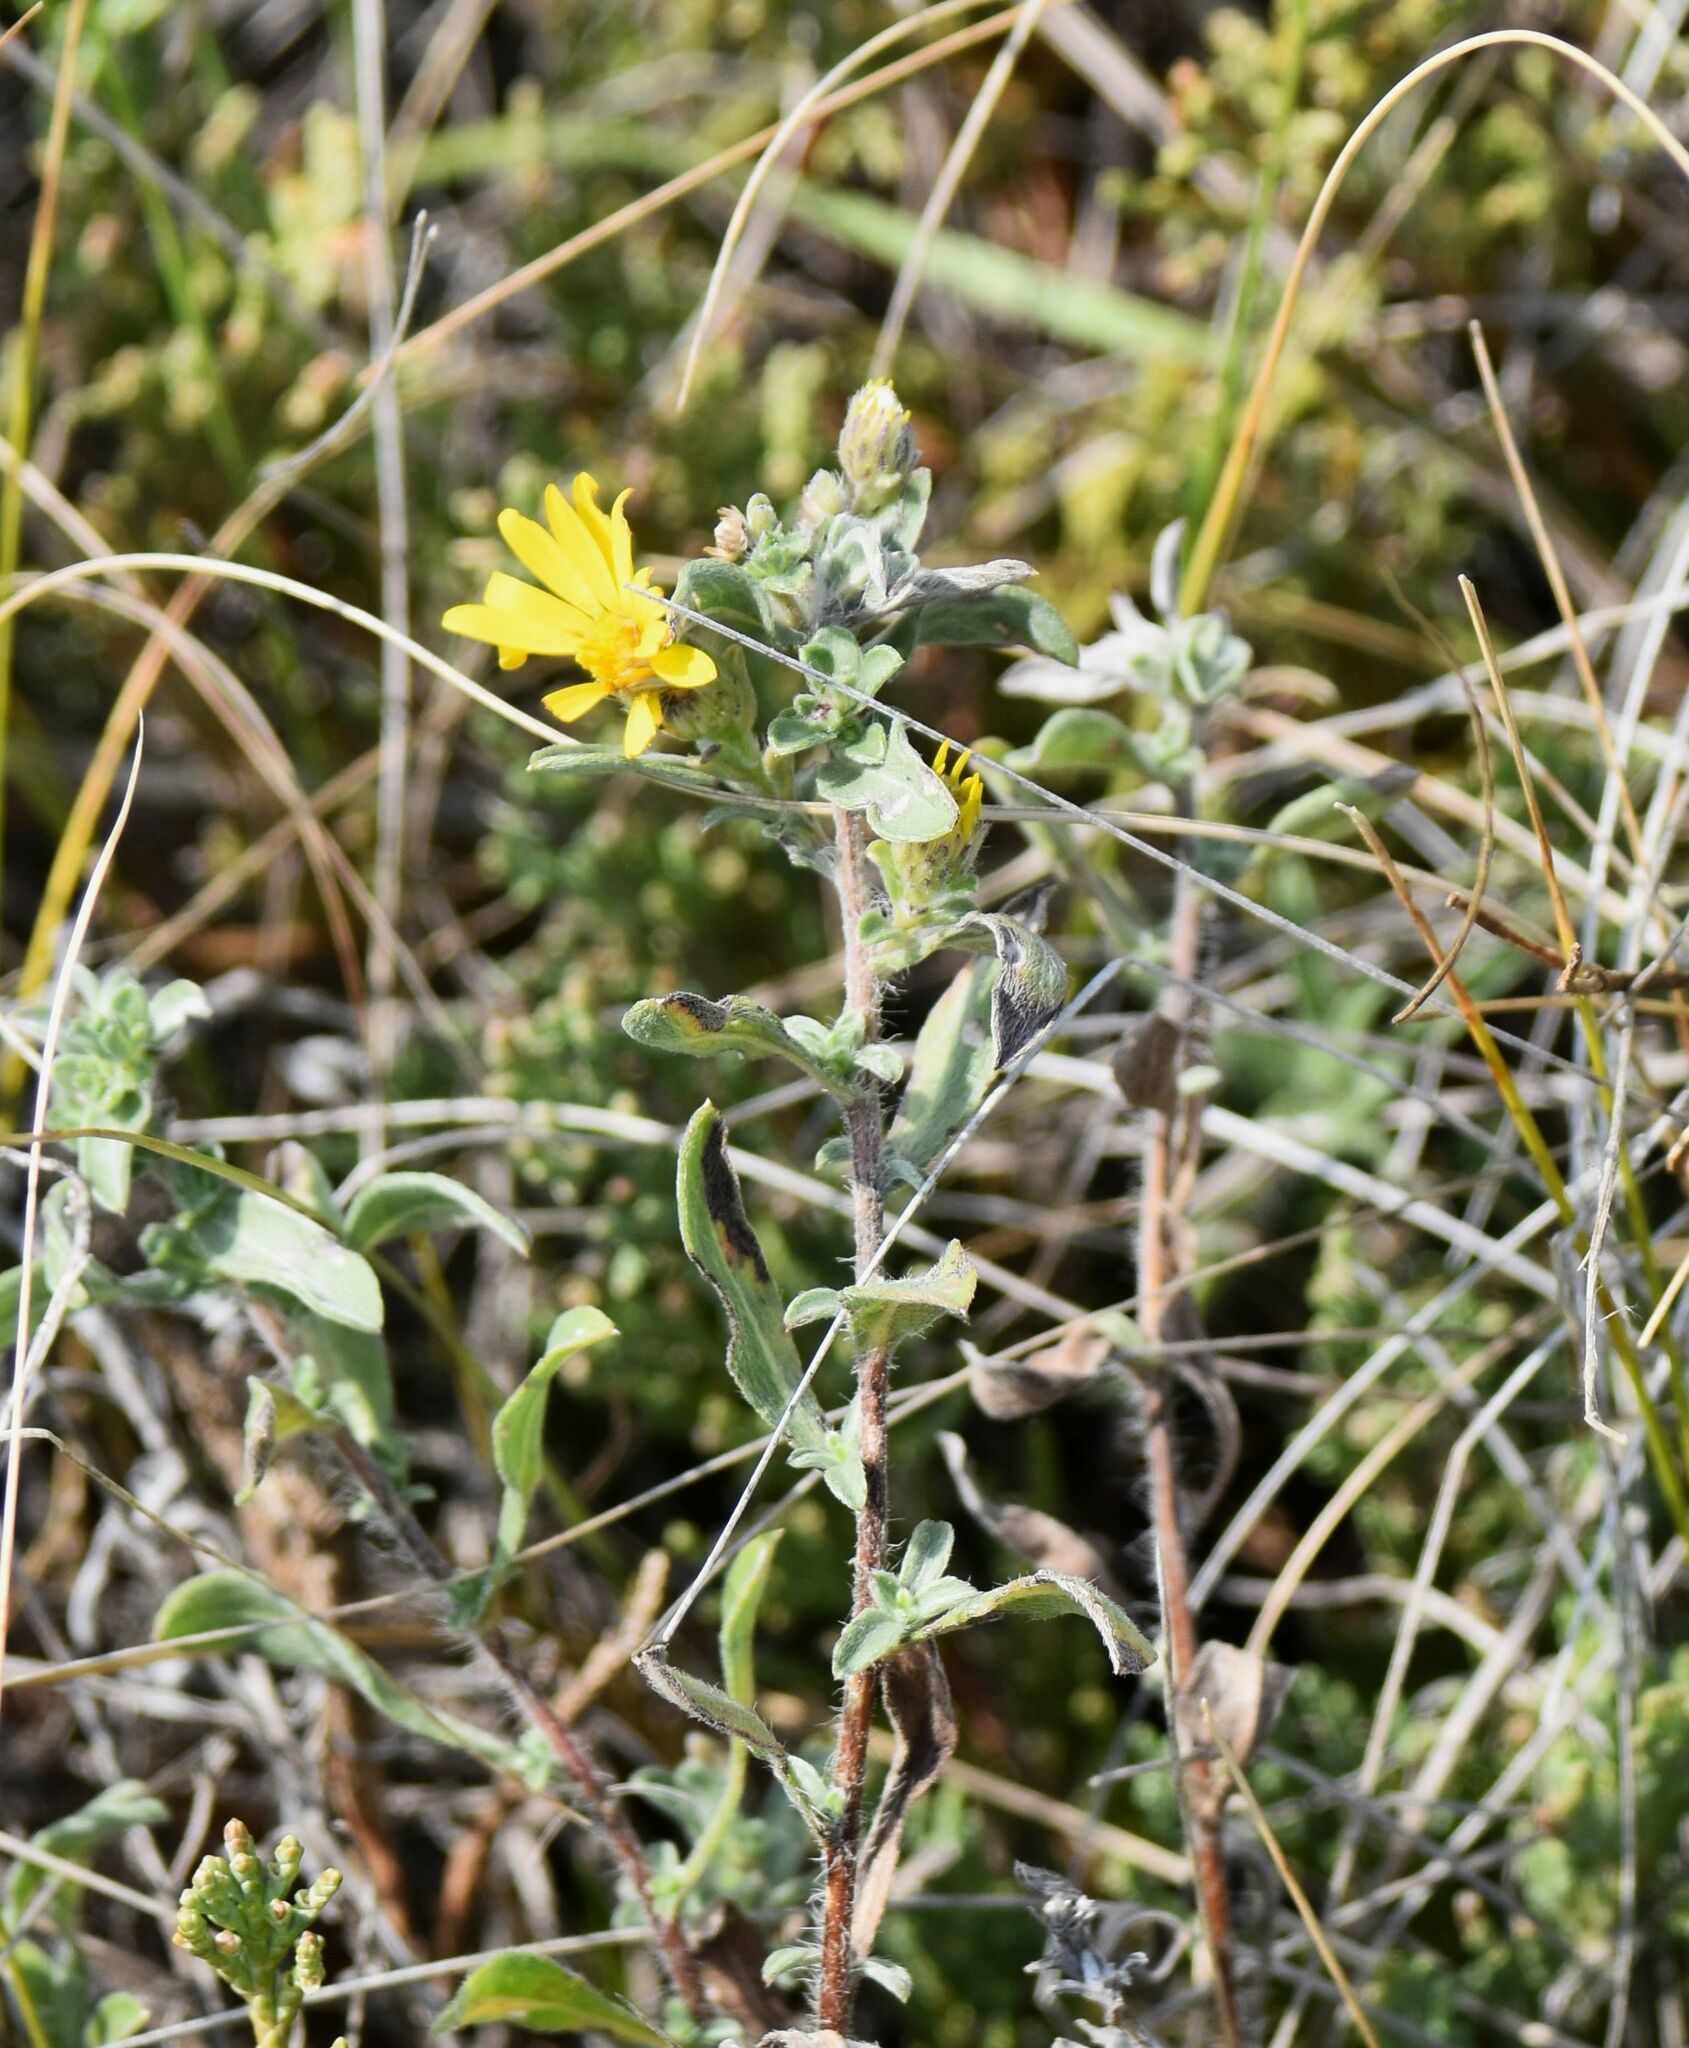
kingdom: Plantae
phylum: Tracheophyta
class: Magnoliopsida
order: Asterales
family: Asteraceae
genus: Heterotheca
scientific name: Heterotheca villosa
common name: Hairy false goldenaster
